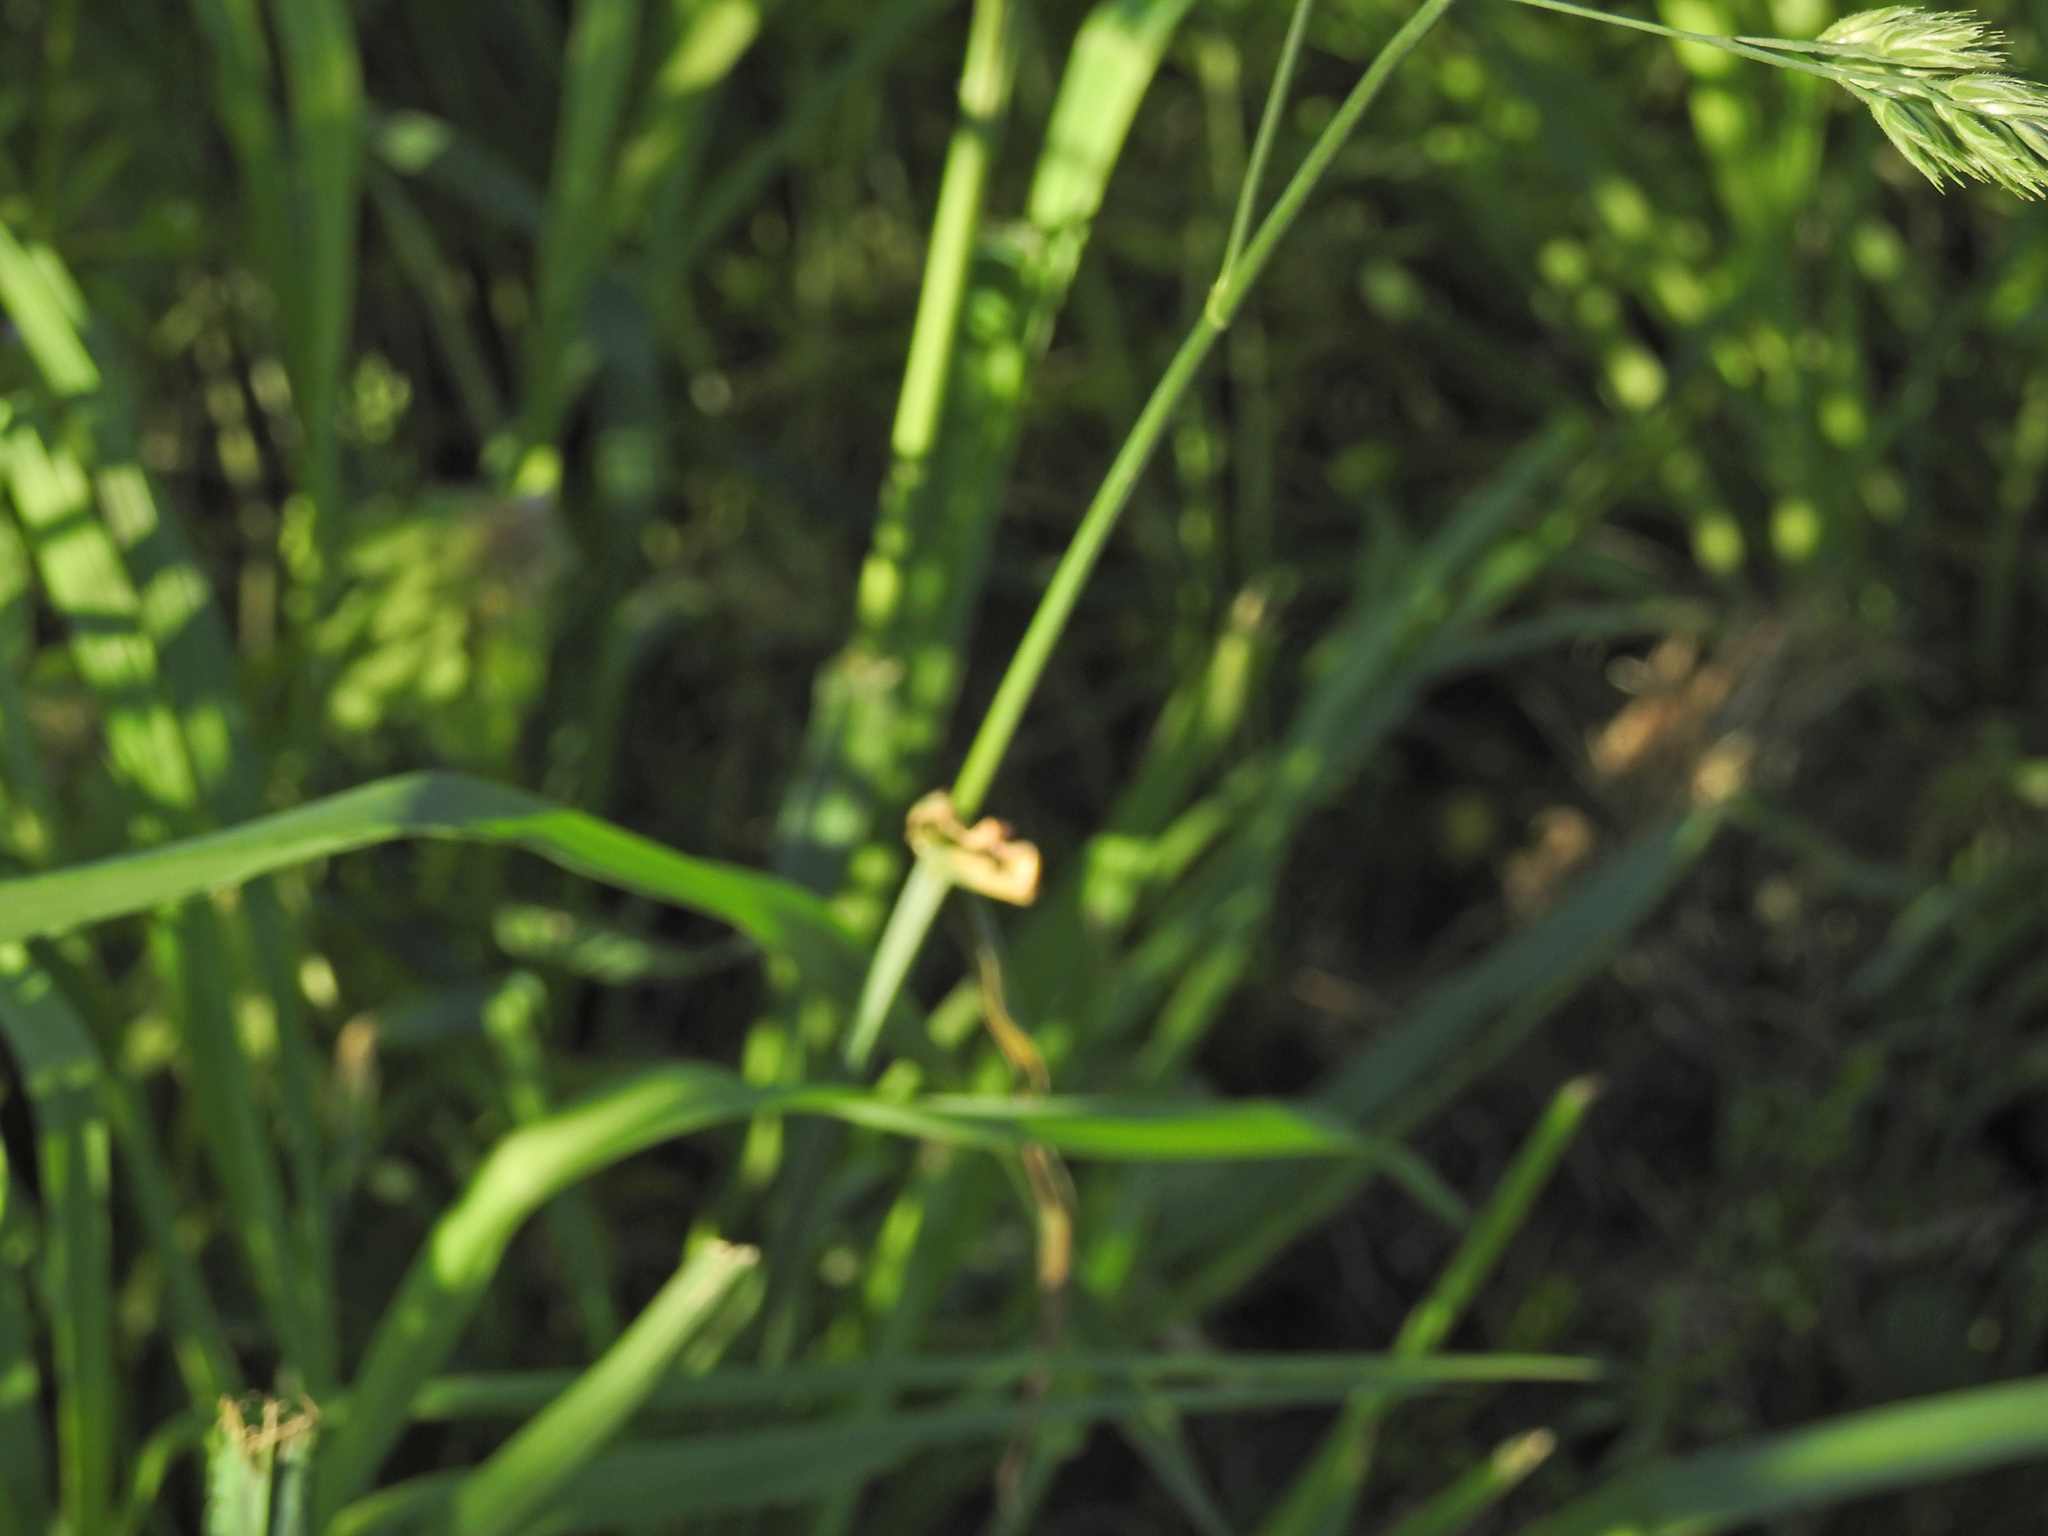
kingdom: Plantae
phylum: Tracheophyta
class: Liliopsida
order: Poales
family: Poaceae
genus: Dactylis
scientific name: Dactylis glomerata
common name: Orchardgrass
